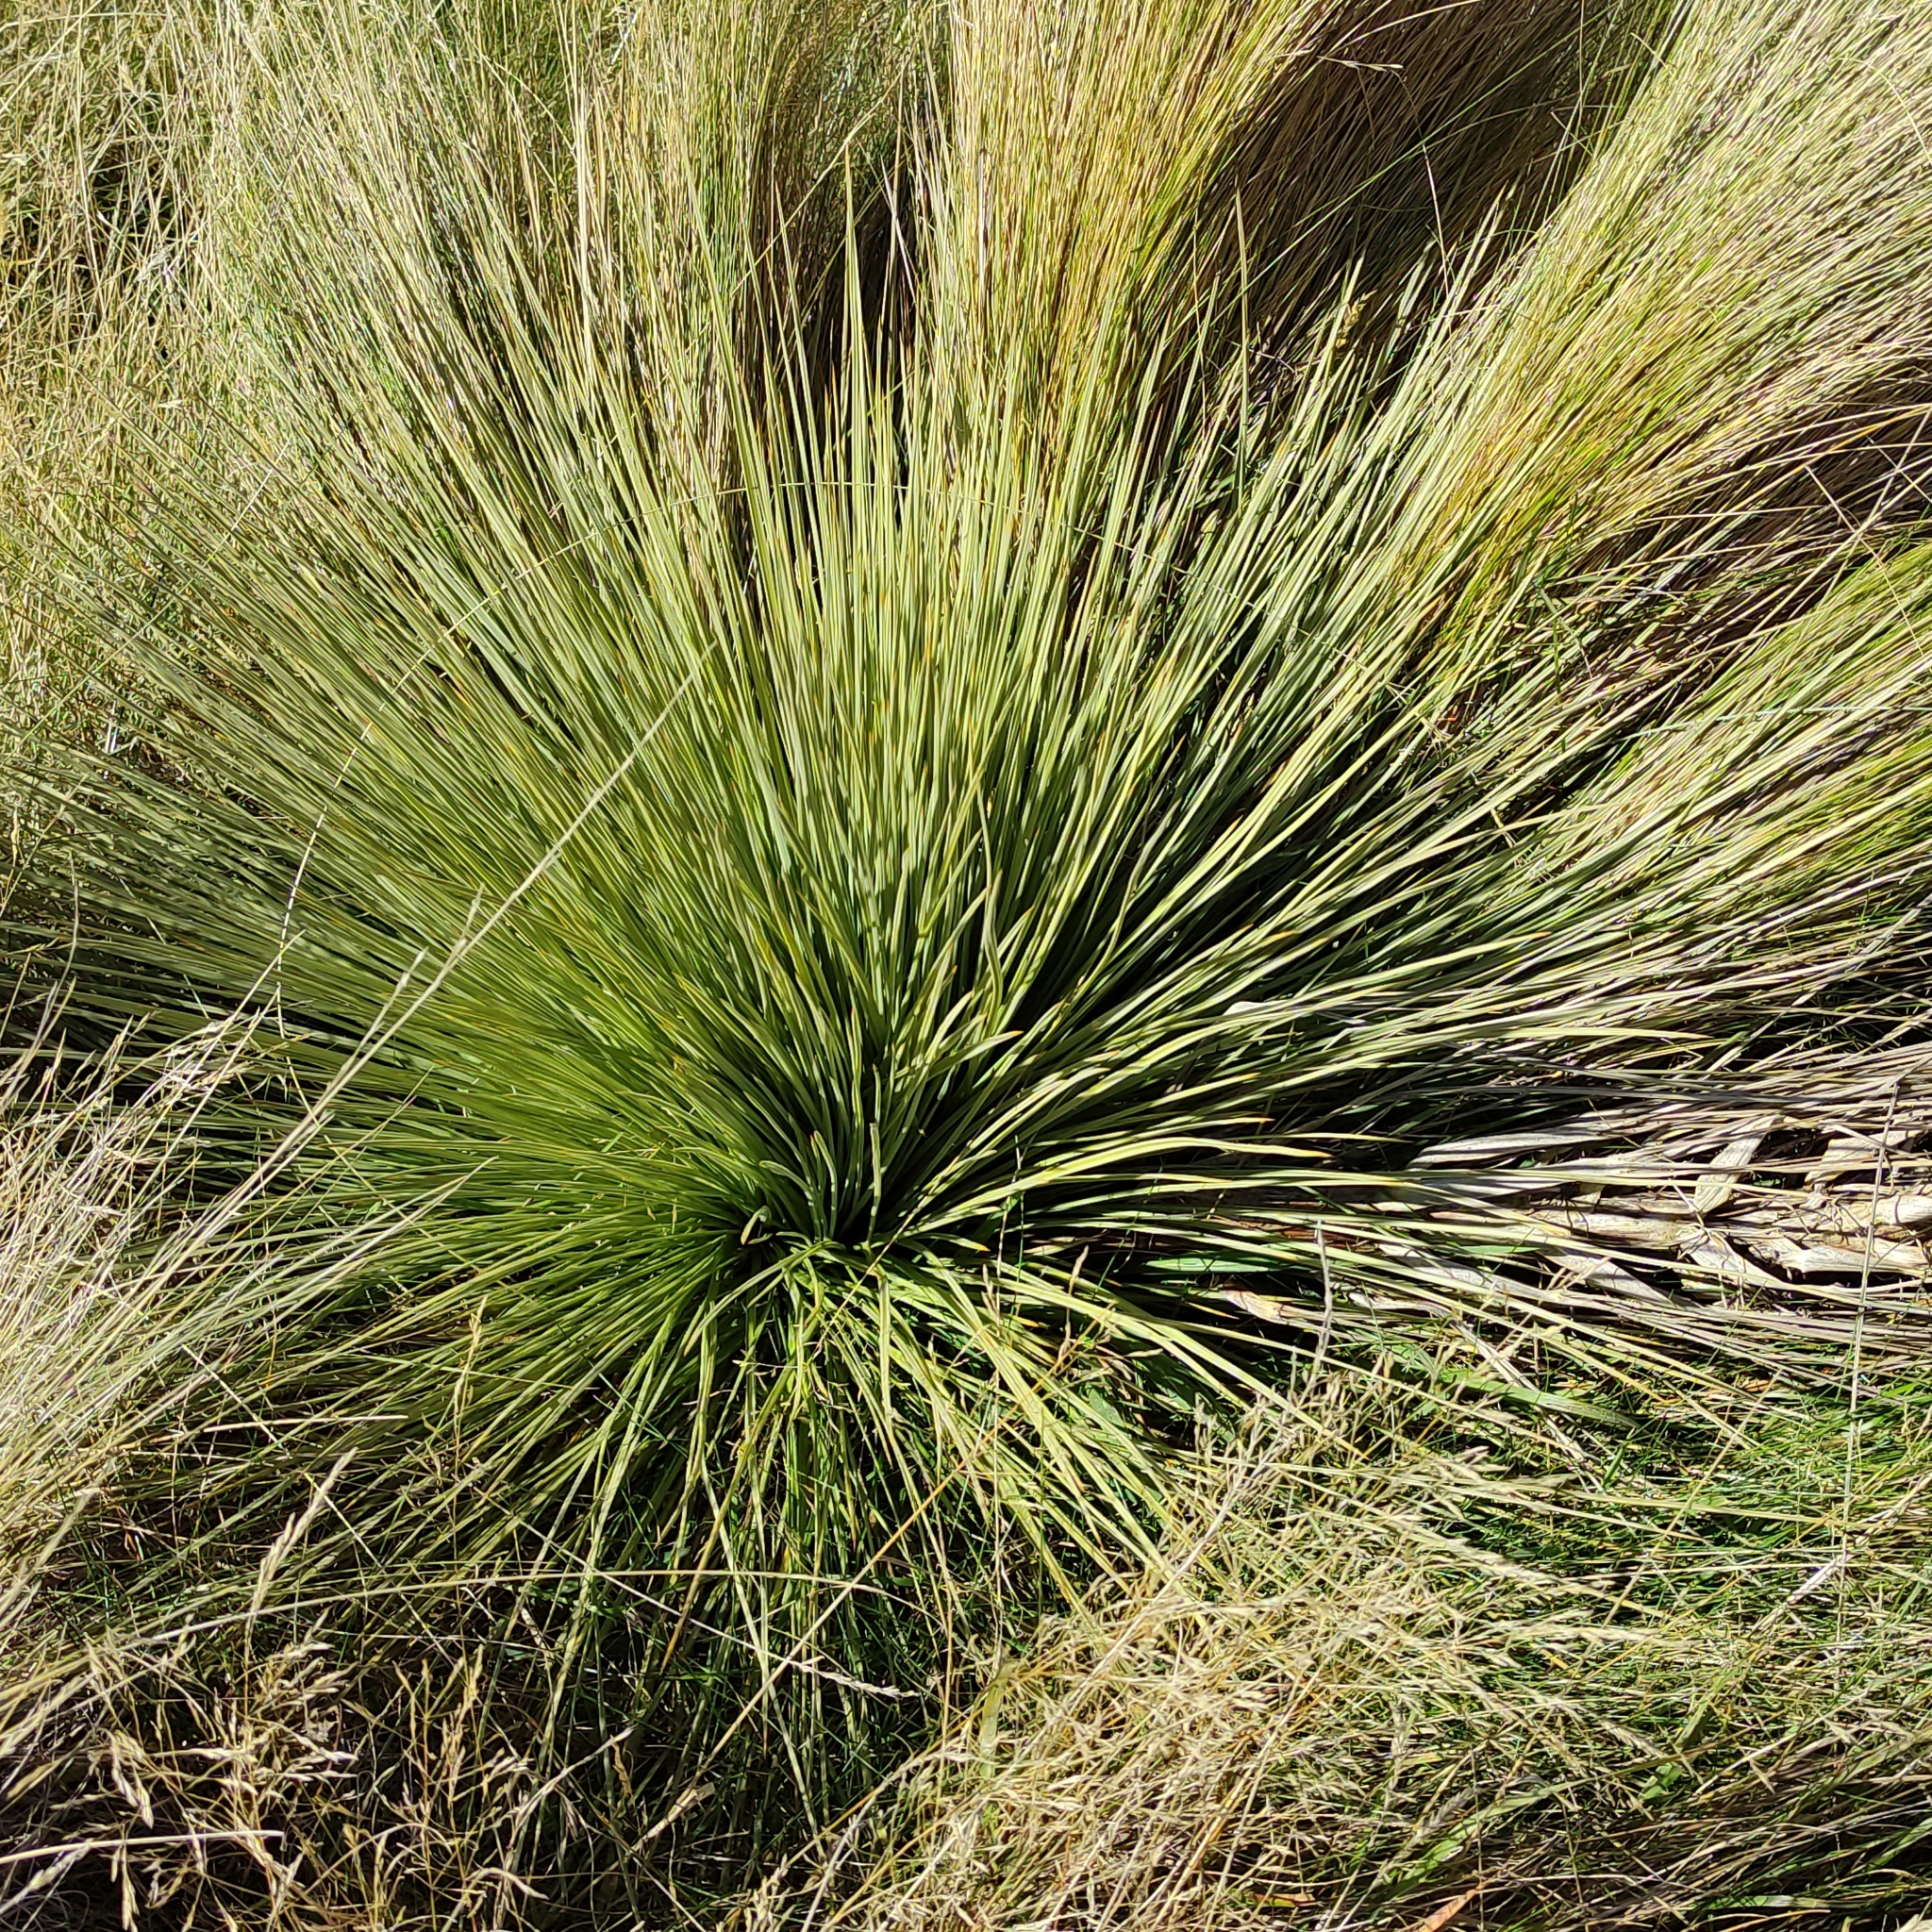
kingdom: Plantae
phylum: Tracheophyta
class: Magnoliopsida
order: Apiales
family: Apiaceae
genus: Aciphylla
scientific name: Aciphylla subflabellata
